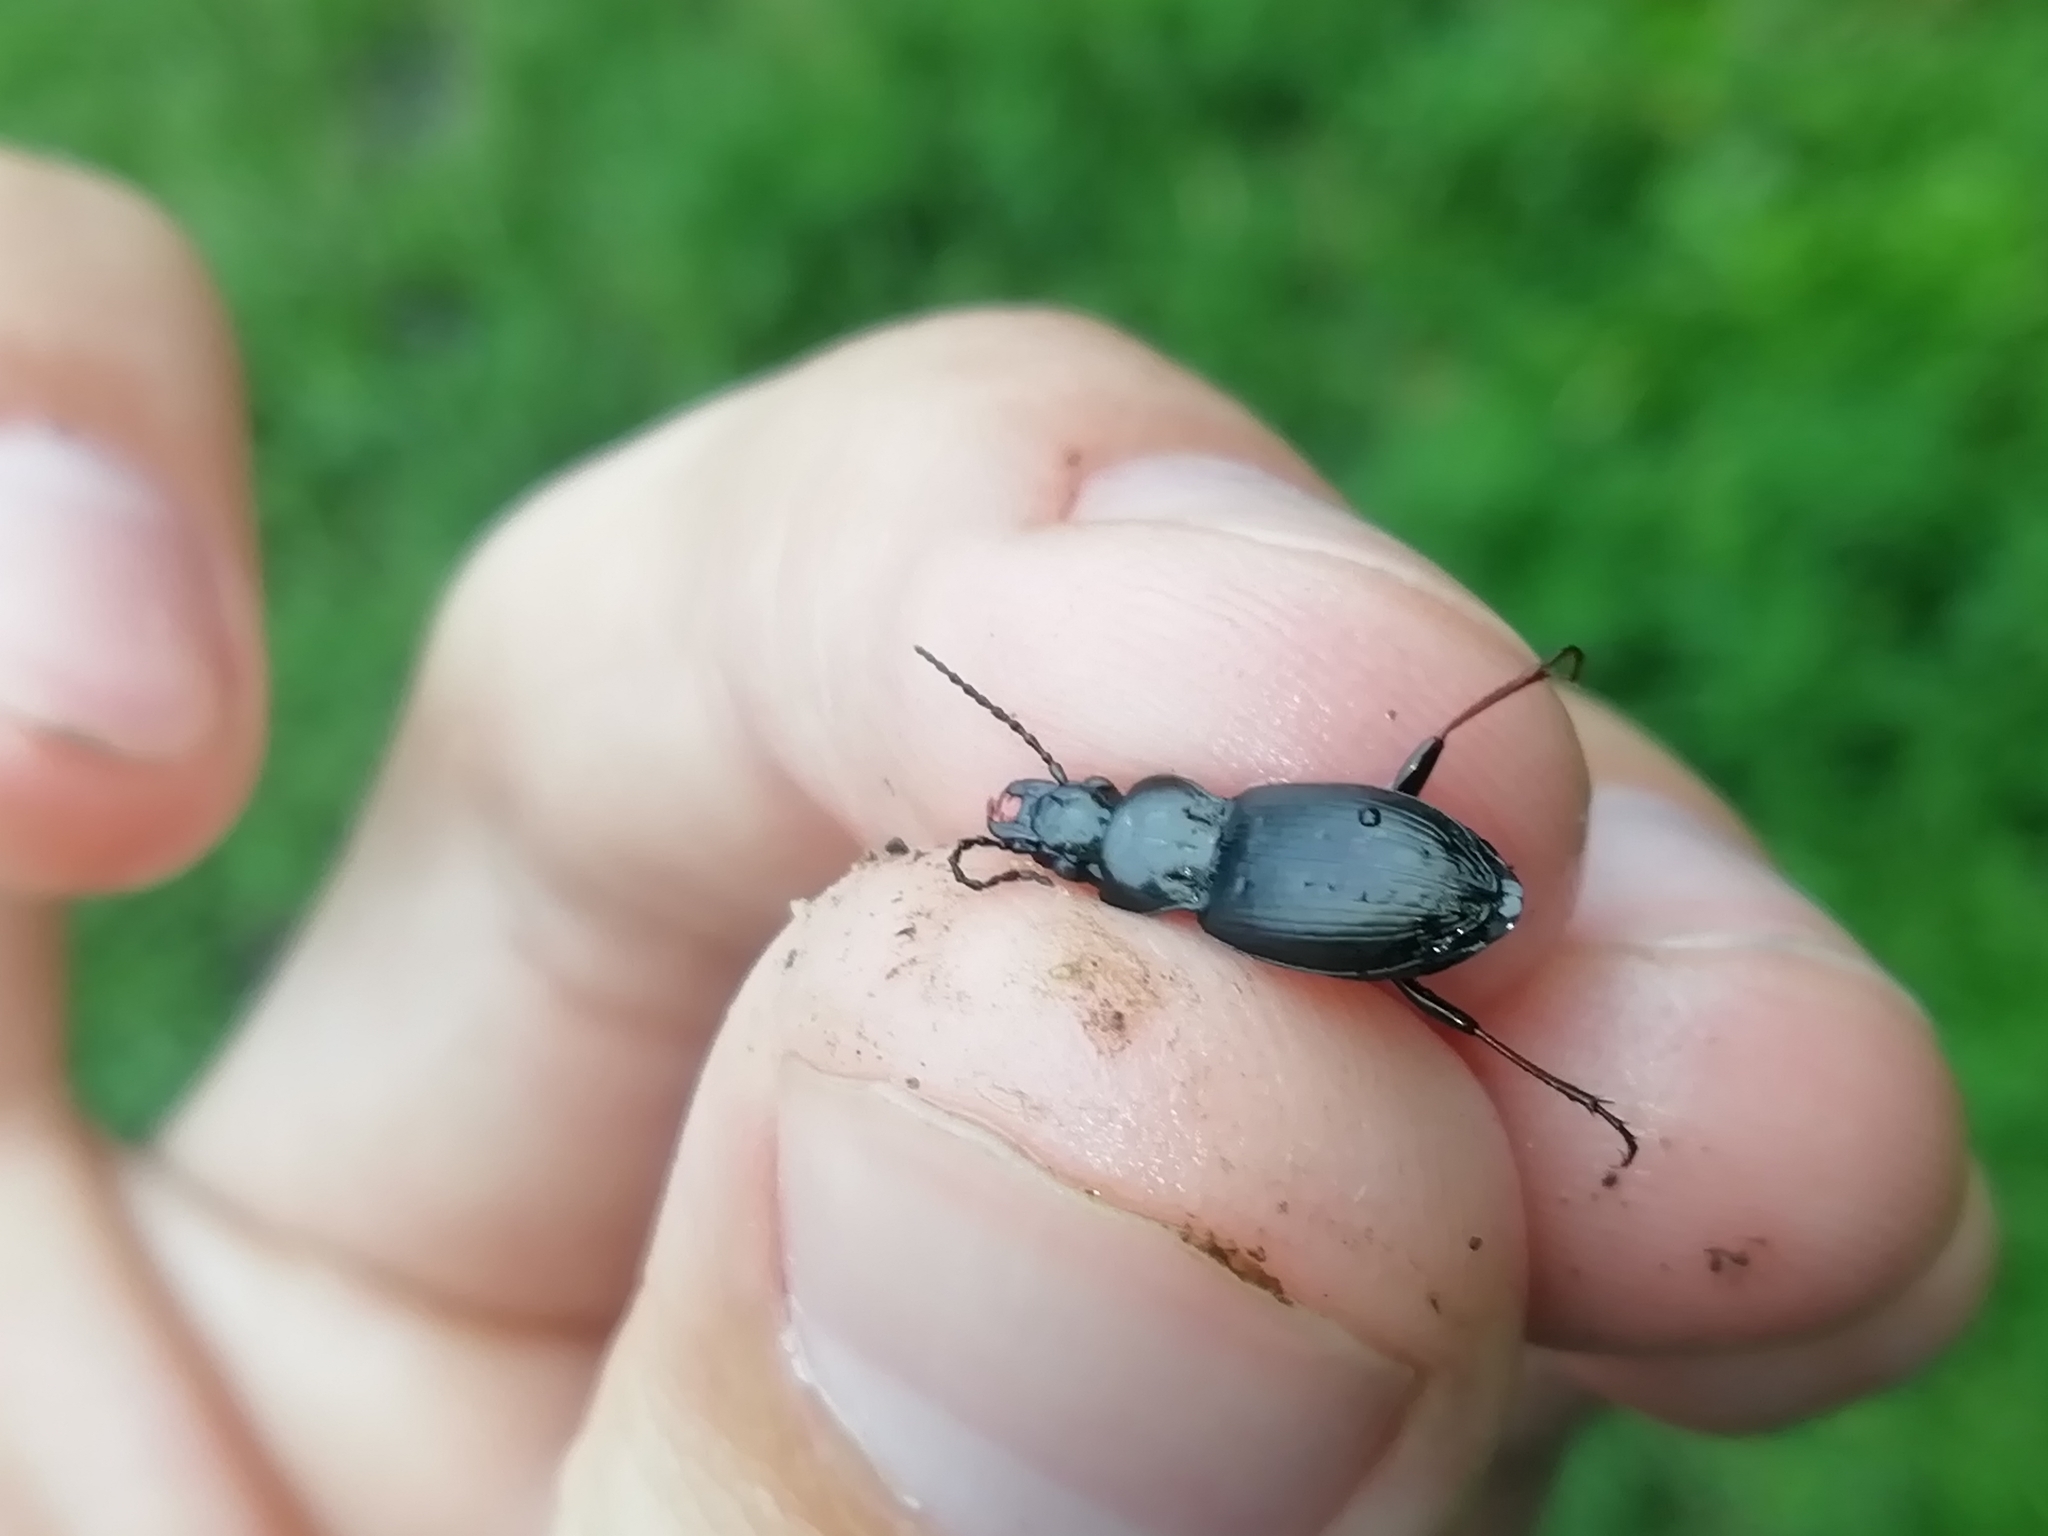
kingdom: Animalia
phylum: Arthropoda
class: Insecta
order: Coleoptera
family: Carabidae
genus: Pterostichus
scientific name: Pterostichus oblongopunctatus
